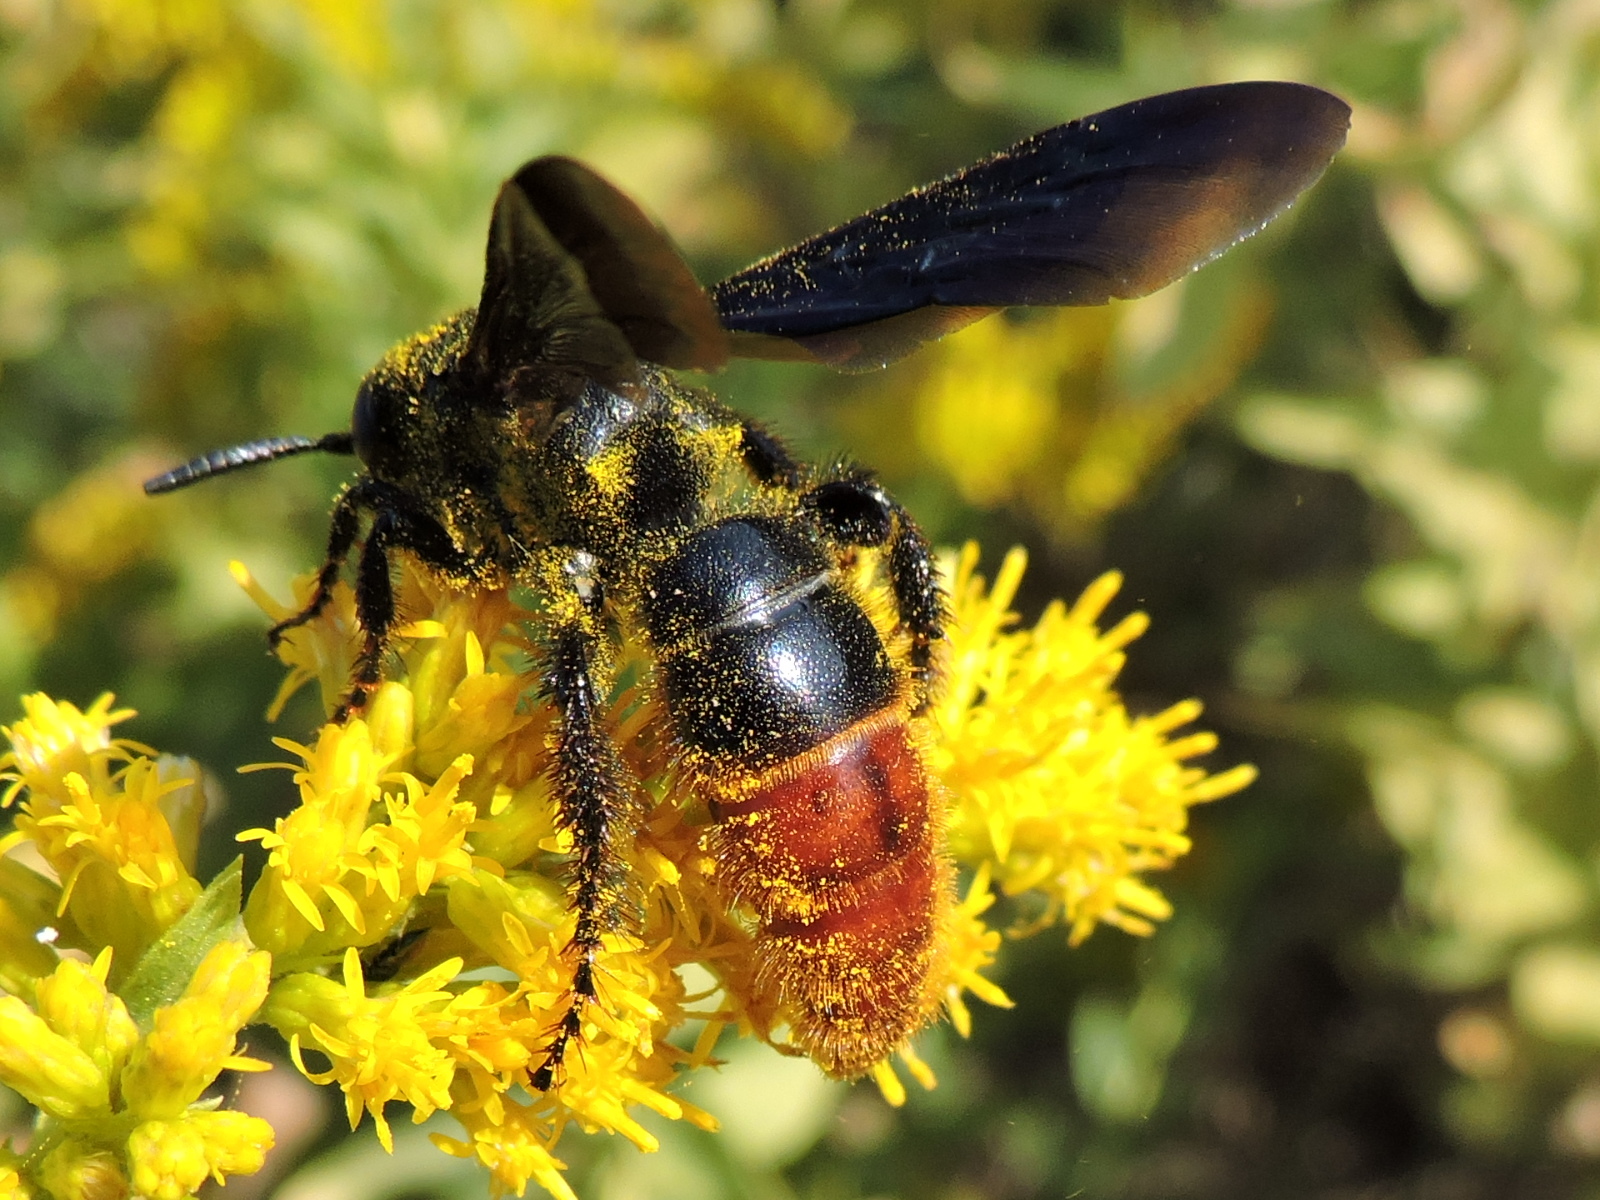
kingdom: Animalia
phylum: Arthropoda
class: Insecta
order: Hymenoptera
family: Scoliidae
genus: Scolia
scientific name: Scolia dubia
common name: Blue-winged scoliid wasp
